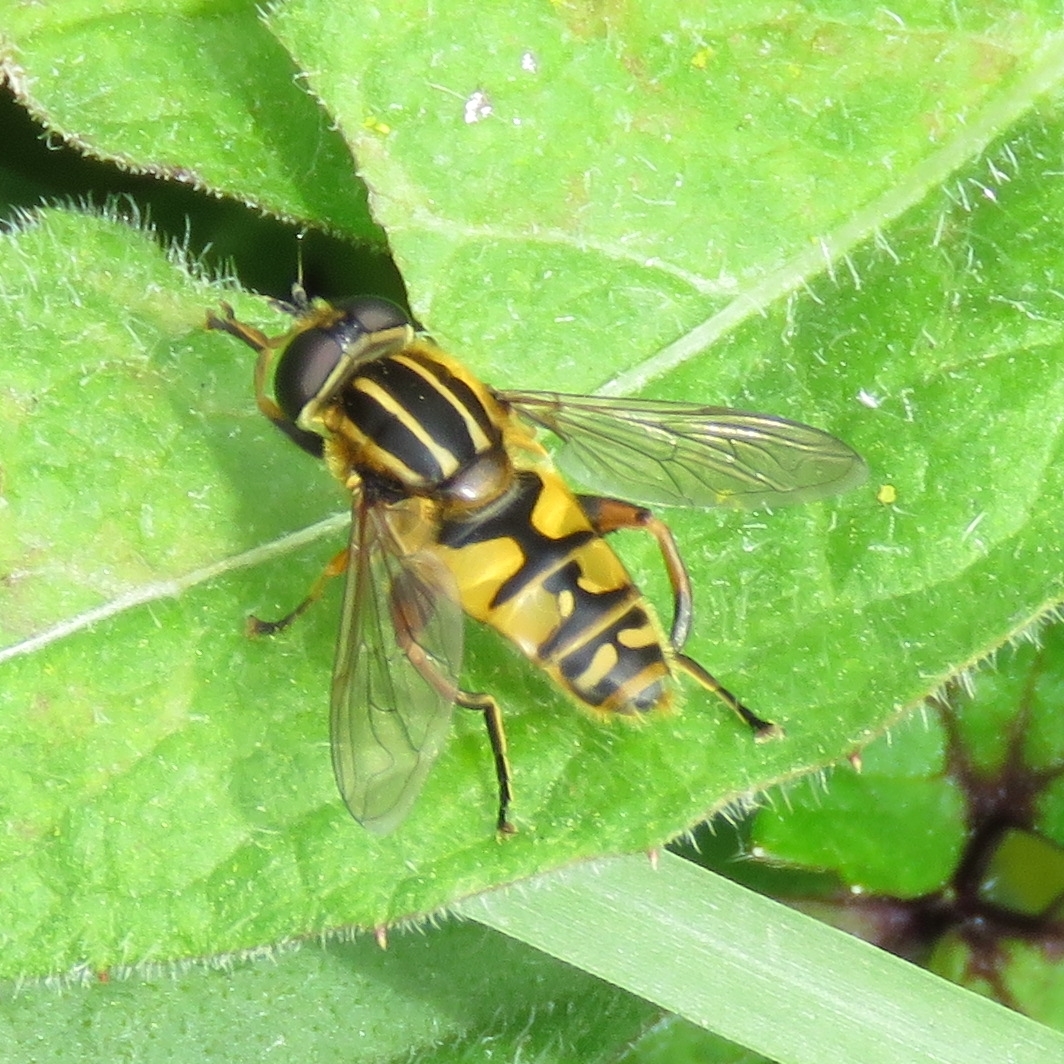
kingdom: Animalia
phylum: Arthropoda
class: Insecta
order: Diptera
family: Syrphidae
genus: Helophilus
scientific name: Helophilus pendulus
